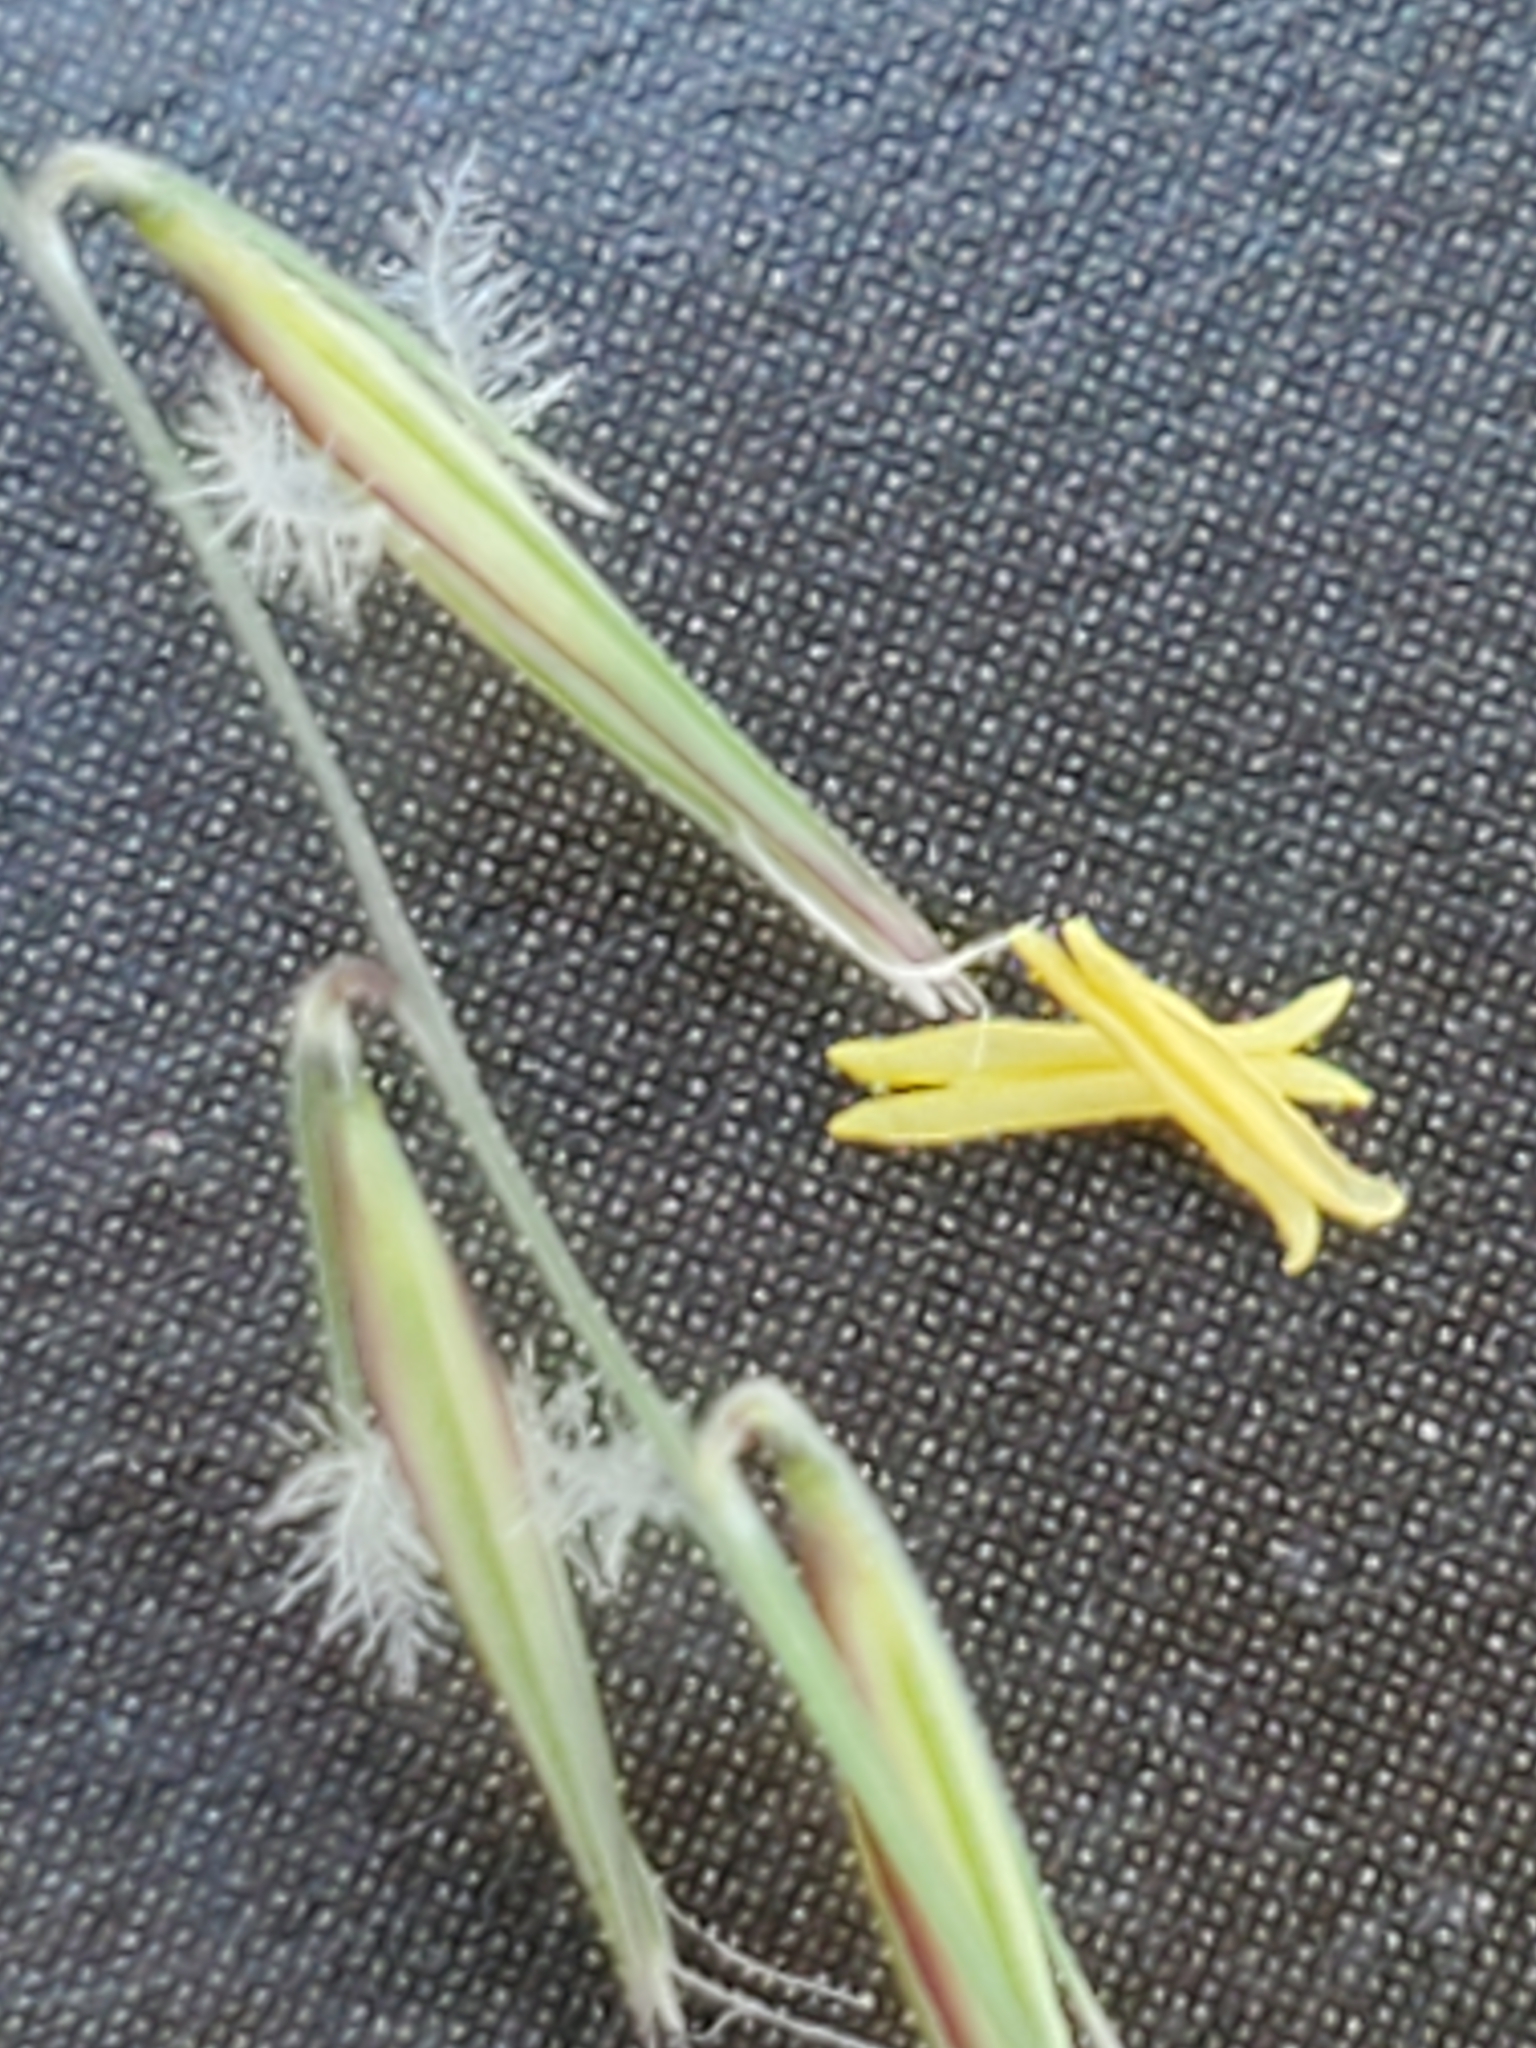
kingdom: Plantae
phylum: Tracheophyta
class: Liliopsida
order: Poales
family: Poaceae
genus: Bouteloua
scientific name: Bouteloua uniflora
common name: Neally's grama
